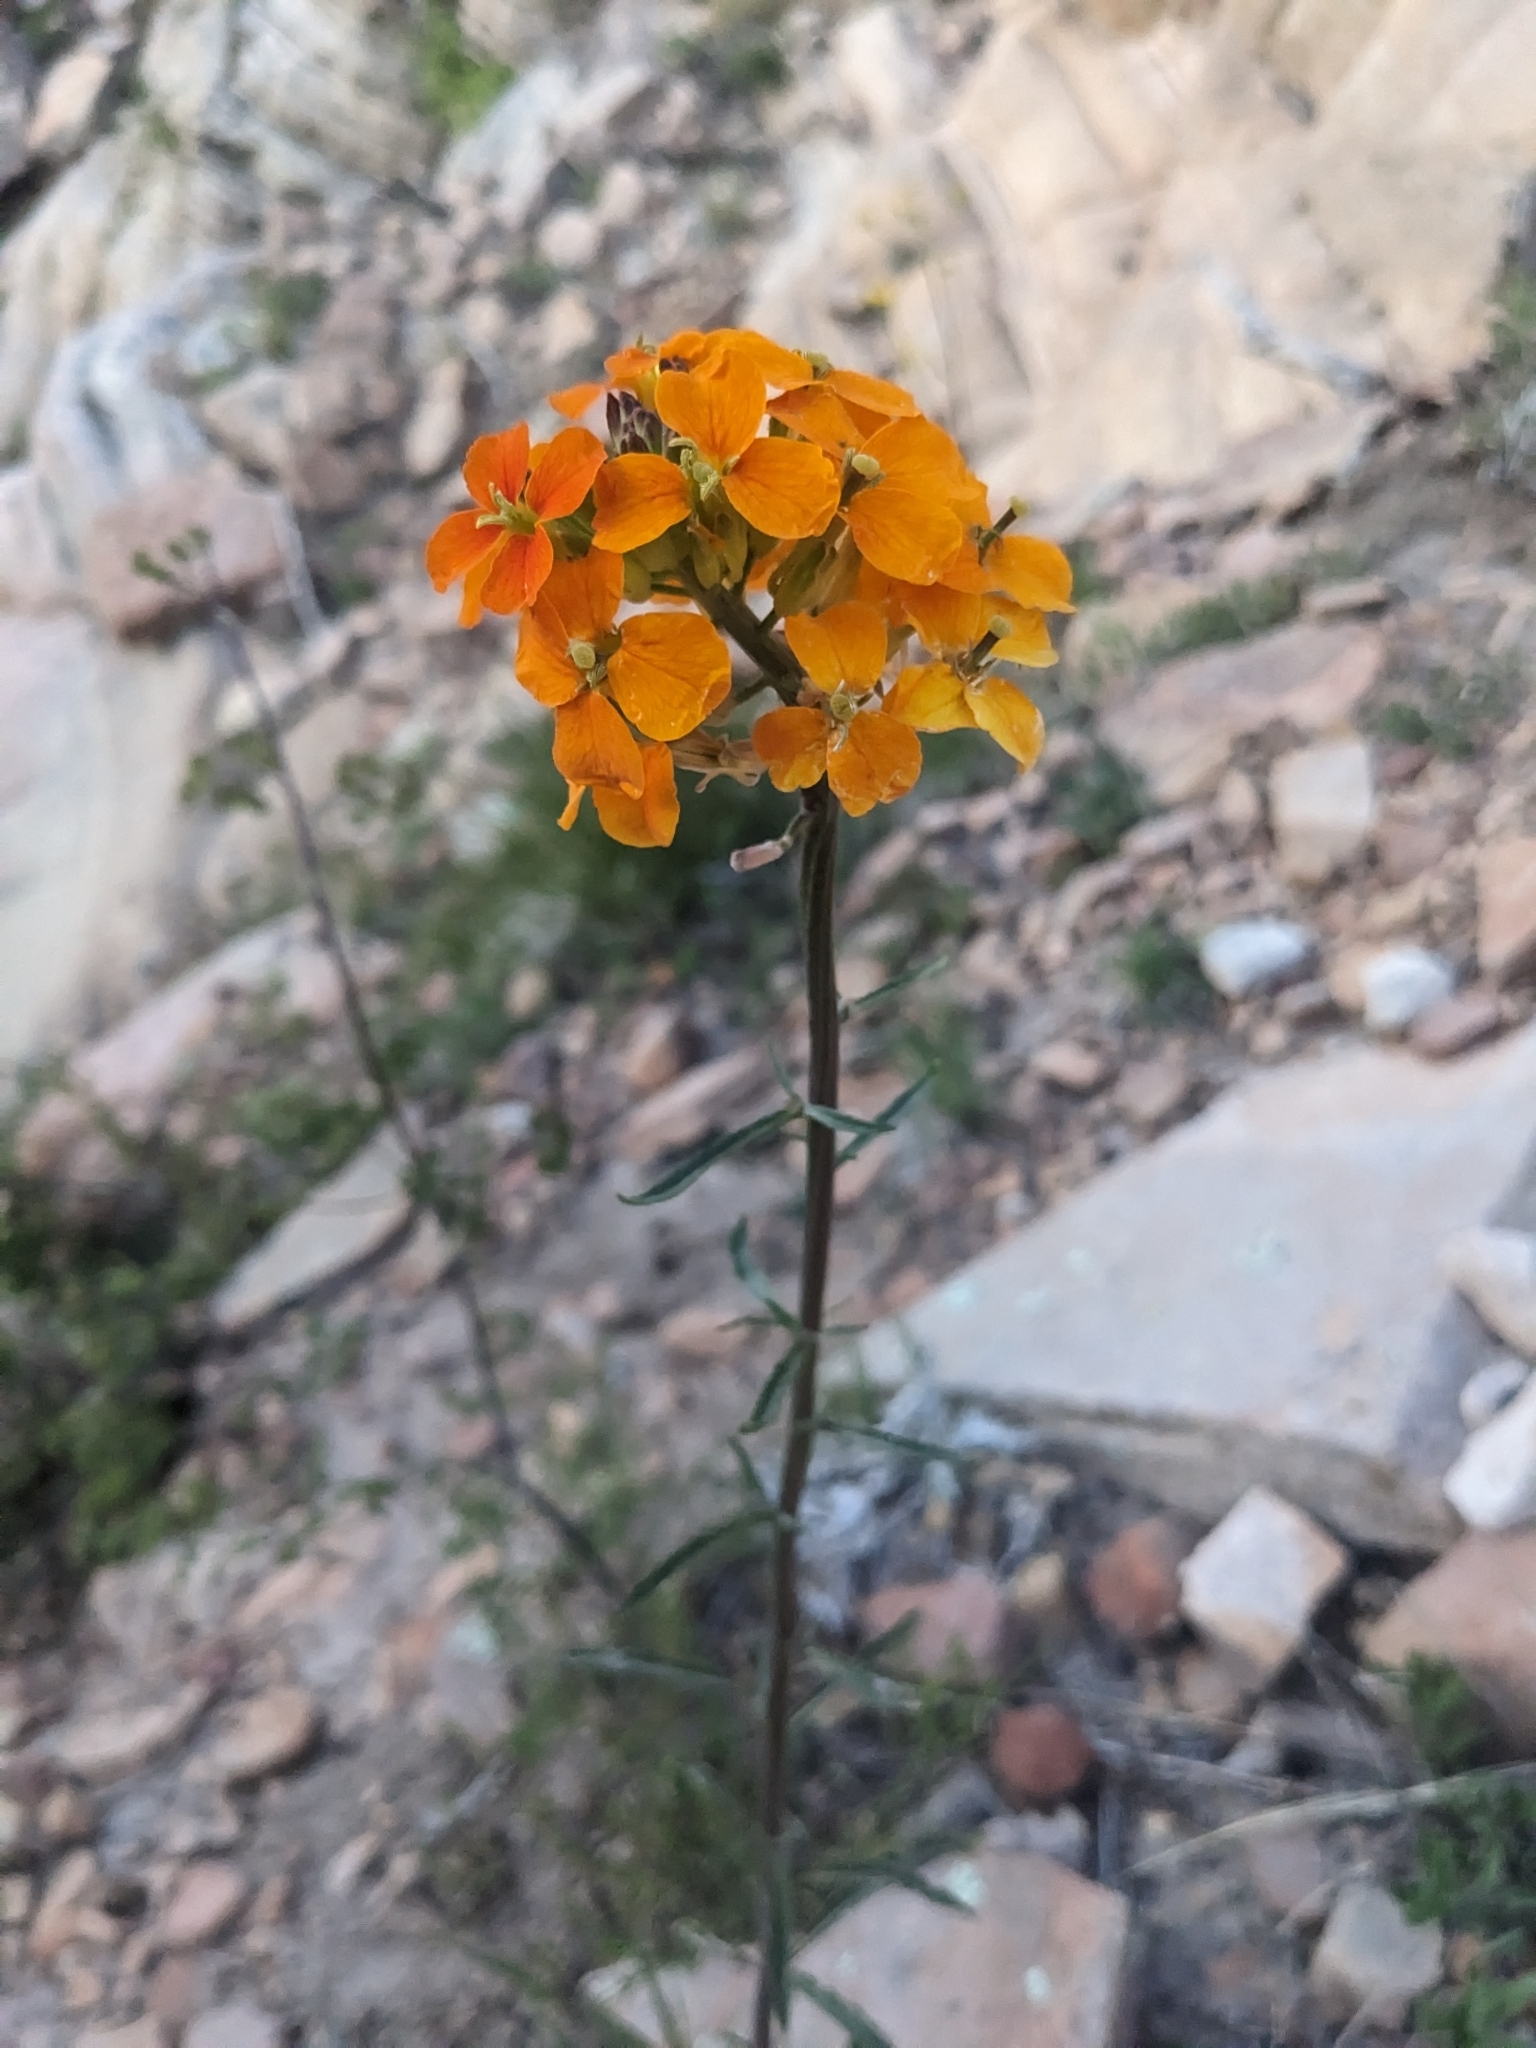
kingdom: Plantae
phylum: Tracheophyta
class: Magnoliopsida
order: Brassicales
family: Brassicaceae
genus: Erysimum
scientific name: Erysimum capitatum
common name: Western wallflower
